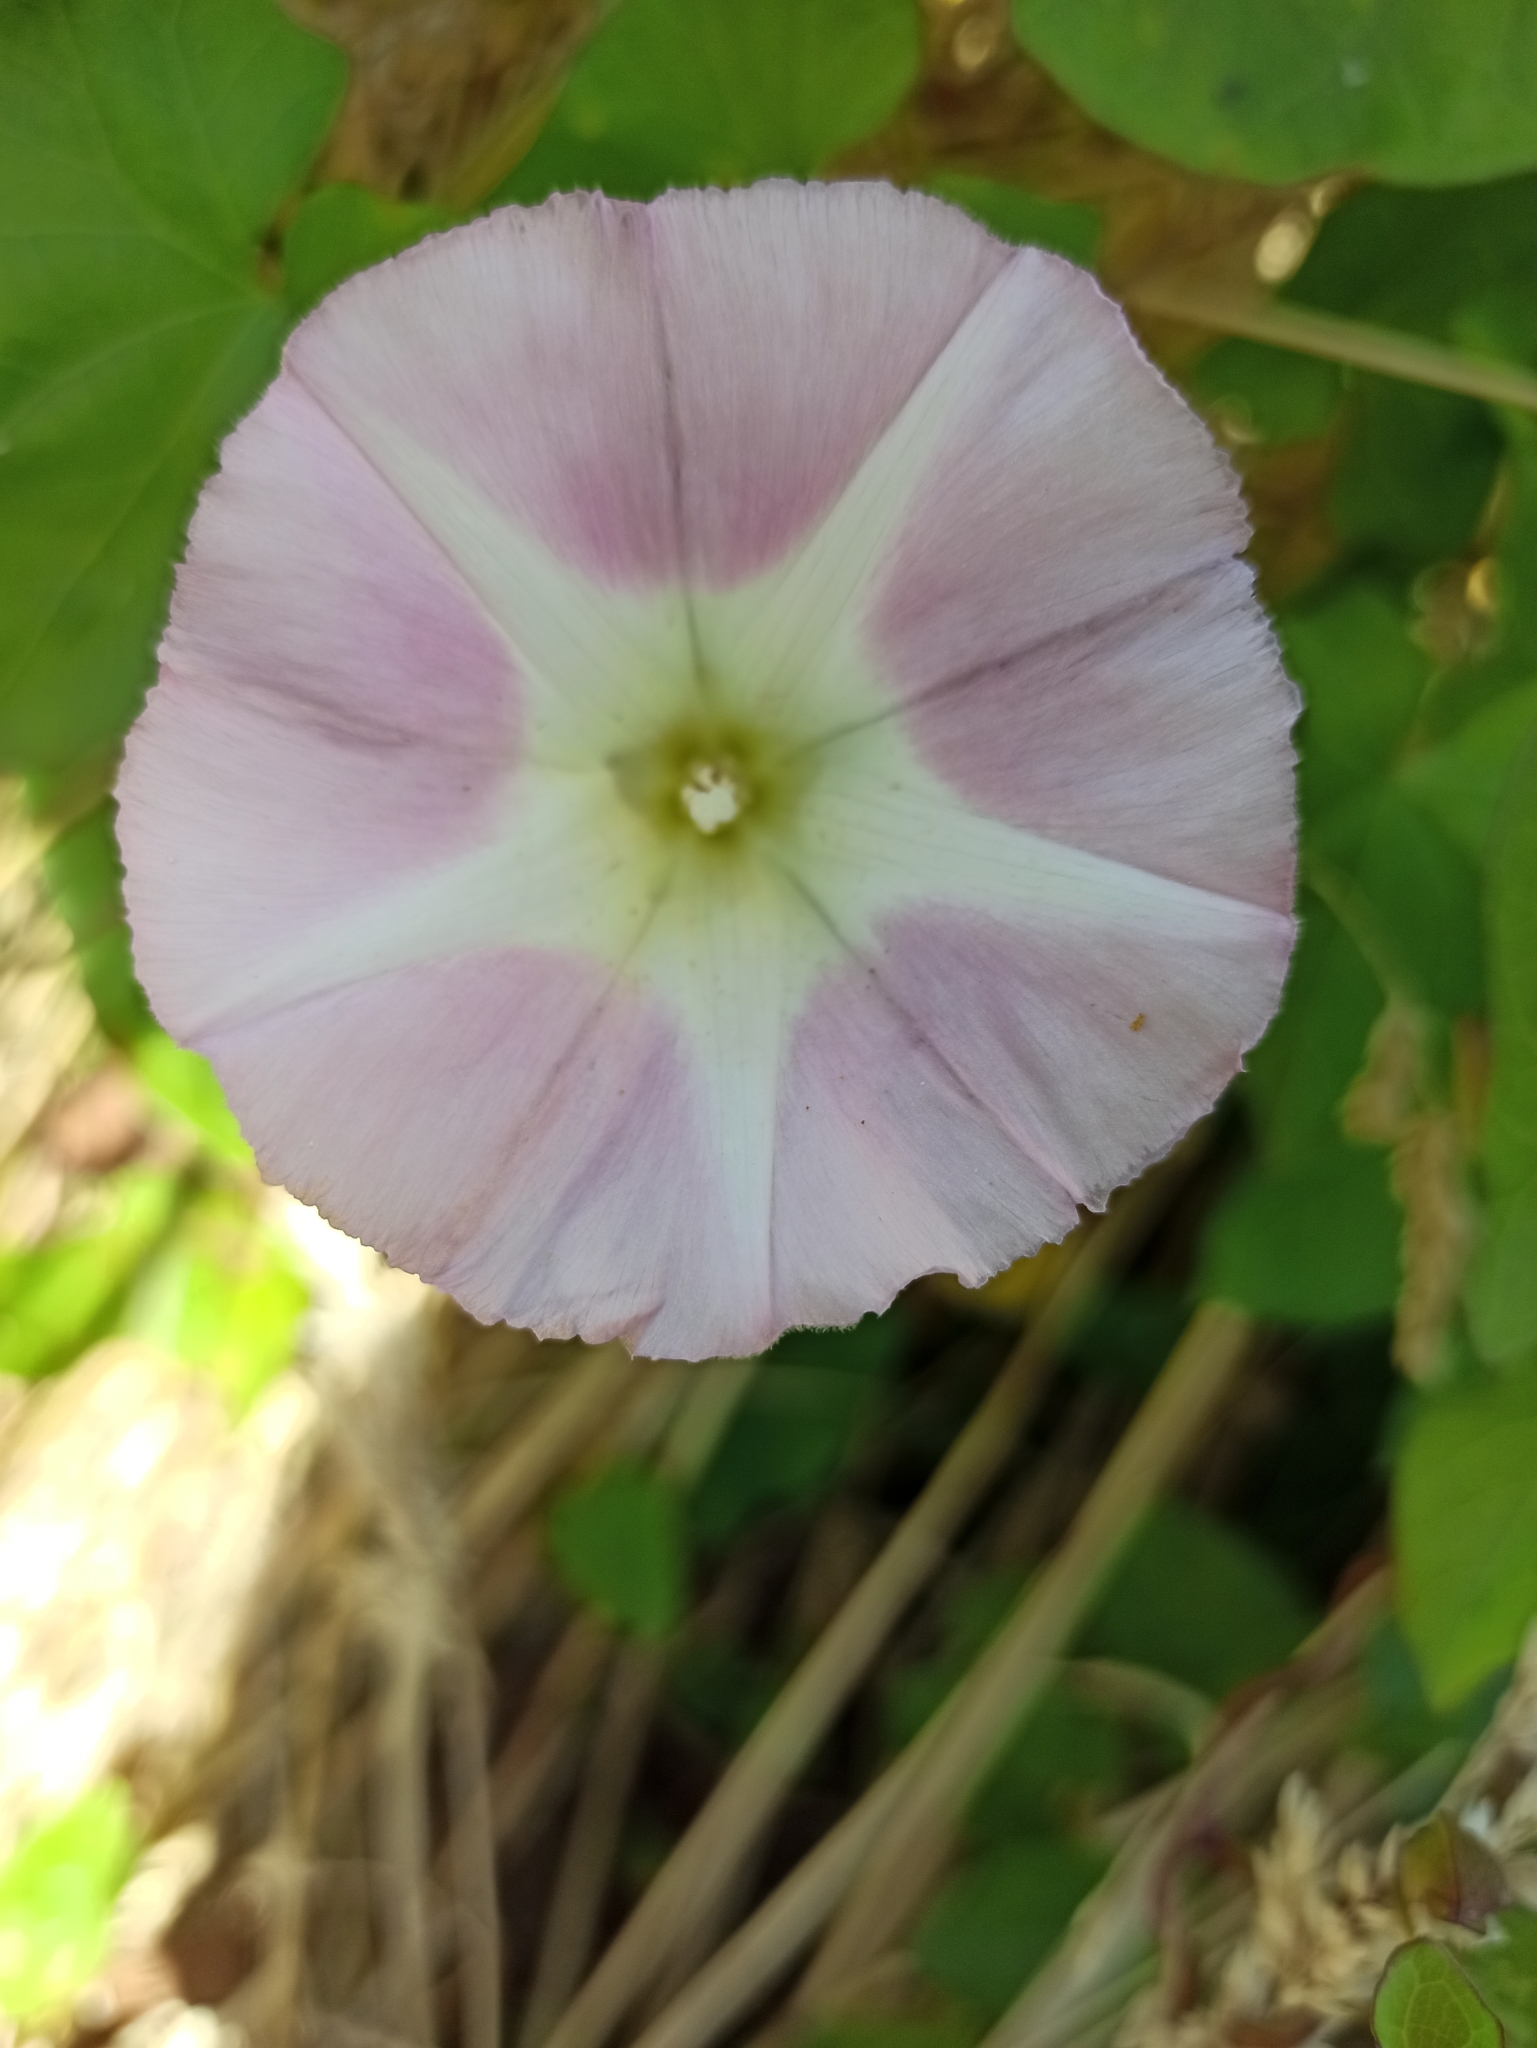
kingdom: Plantae
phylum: Tracheophyta
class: Magnoliopsida
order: Solanales
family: Convolvulaceae
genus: Calystegia
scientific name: Calystegia
